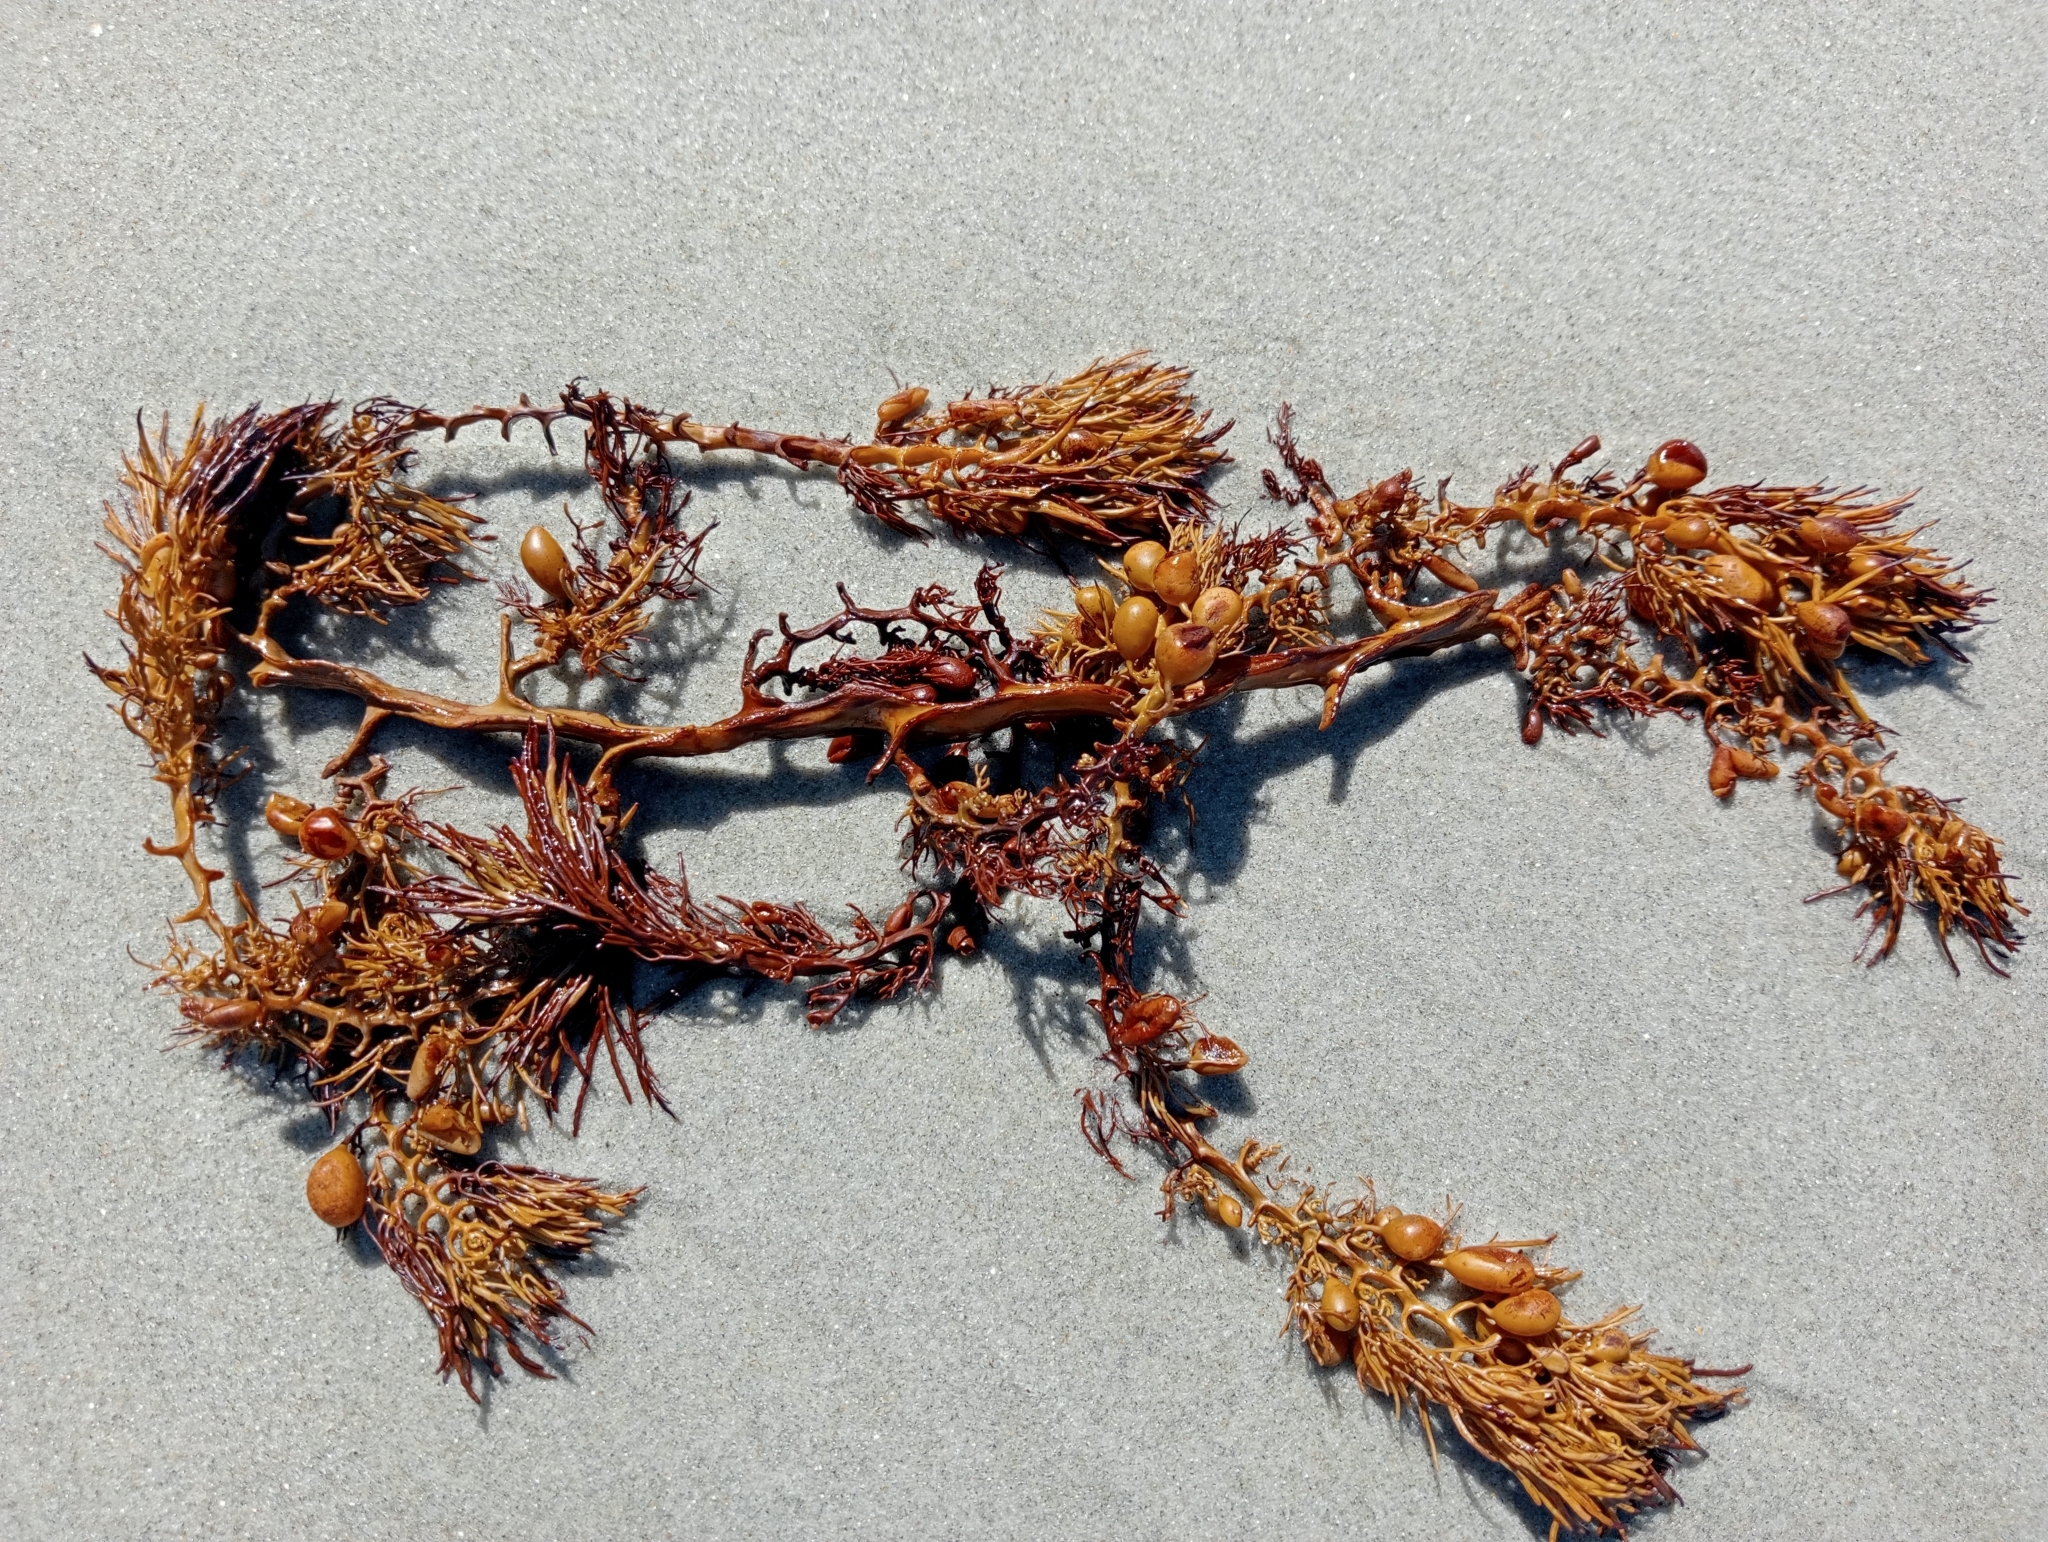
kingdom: Chromista
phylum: Ochrophyta
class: Phaeophyceae
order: Fucales
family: Sargassaceae
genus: Cystophora
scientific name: Cystophora retroflexa
